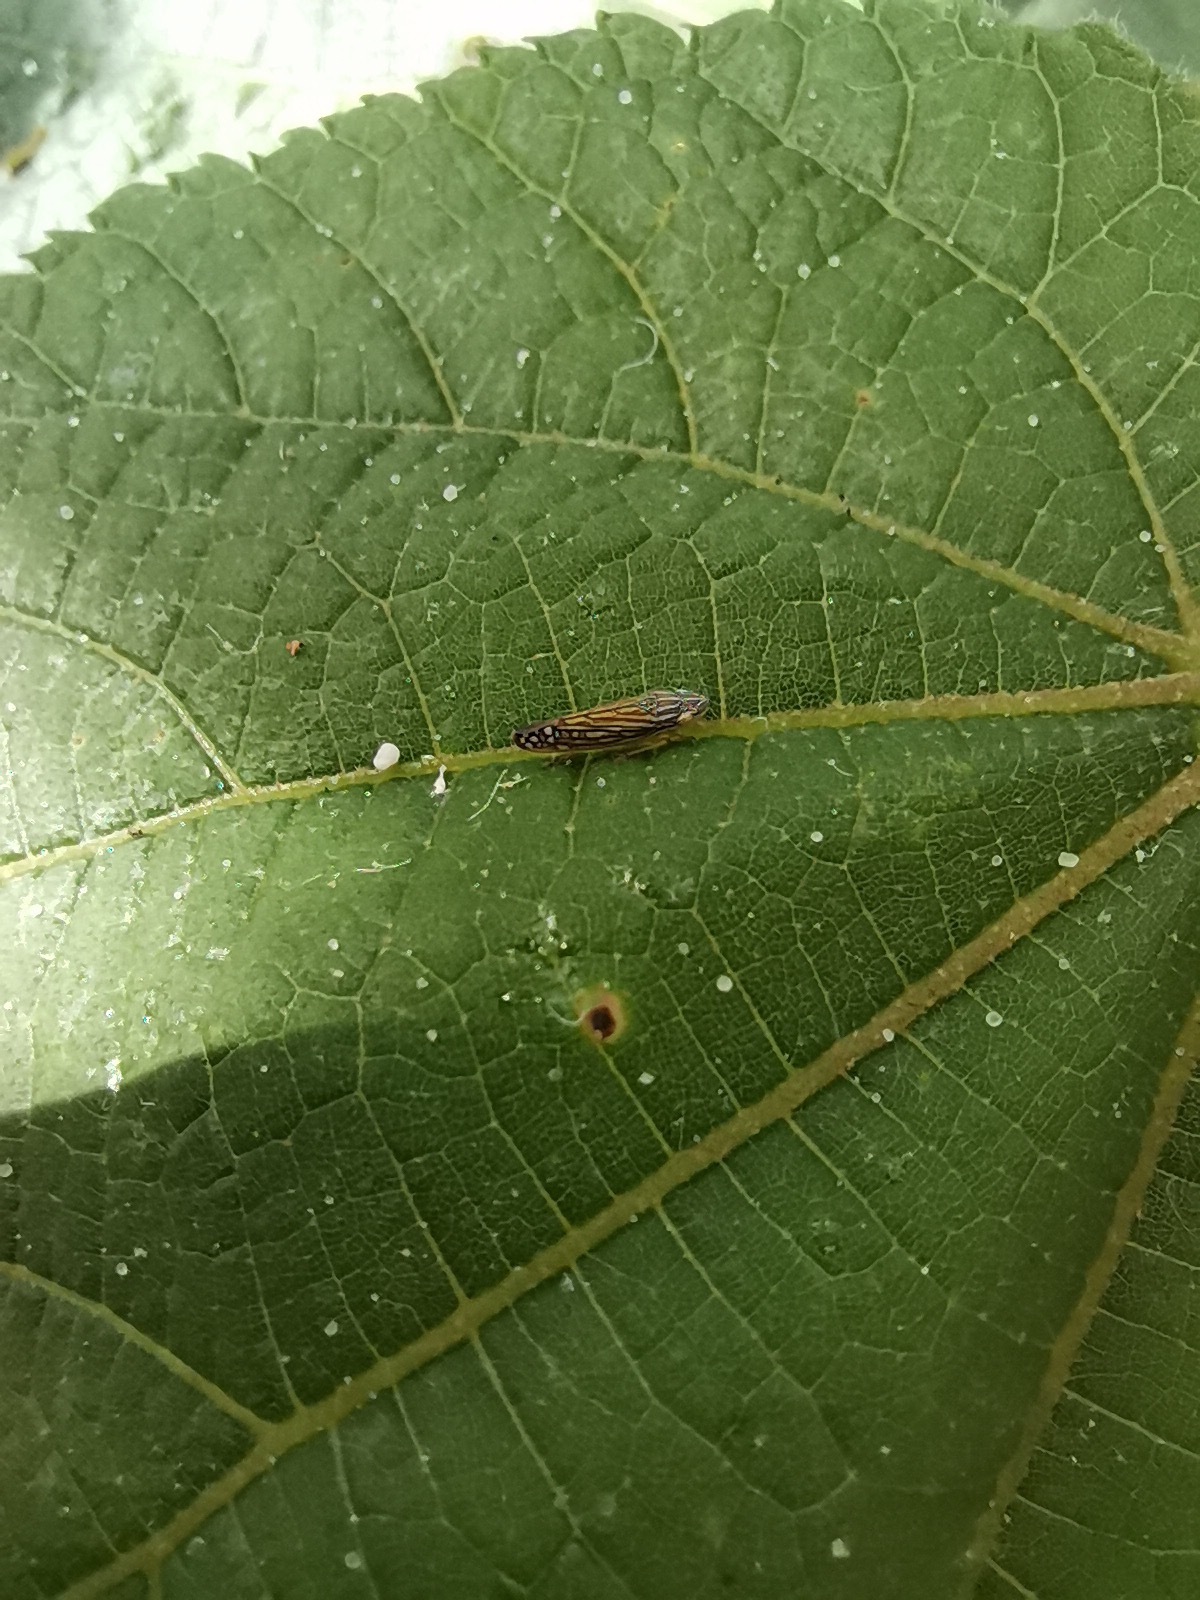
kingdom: Animalia
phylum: Arthropoda
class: Insecta
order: Hemiptera
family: Cicadellidae
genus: Graphocephala
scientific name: Graphocephala pulchra
